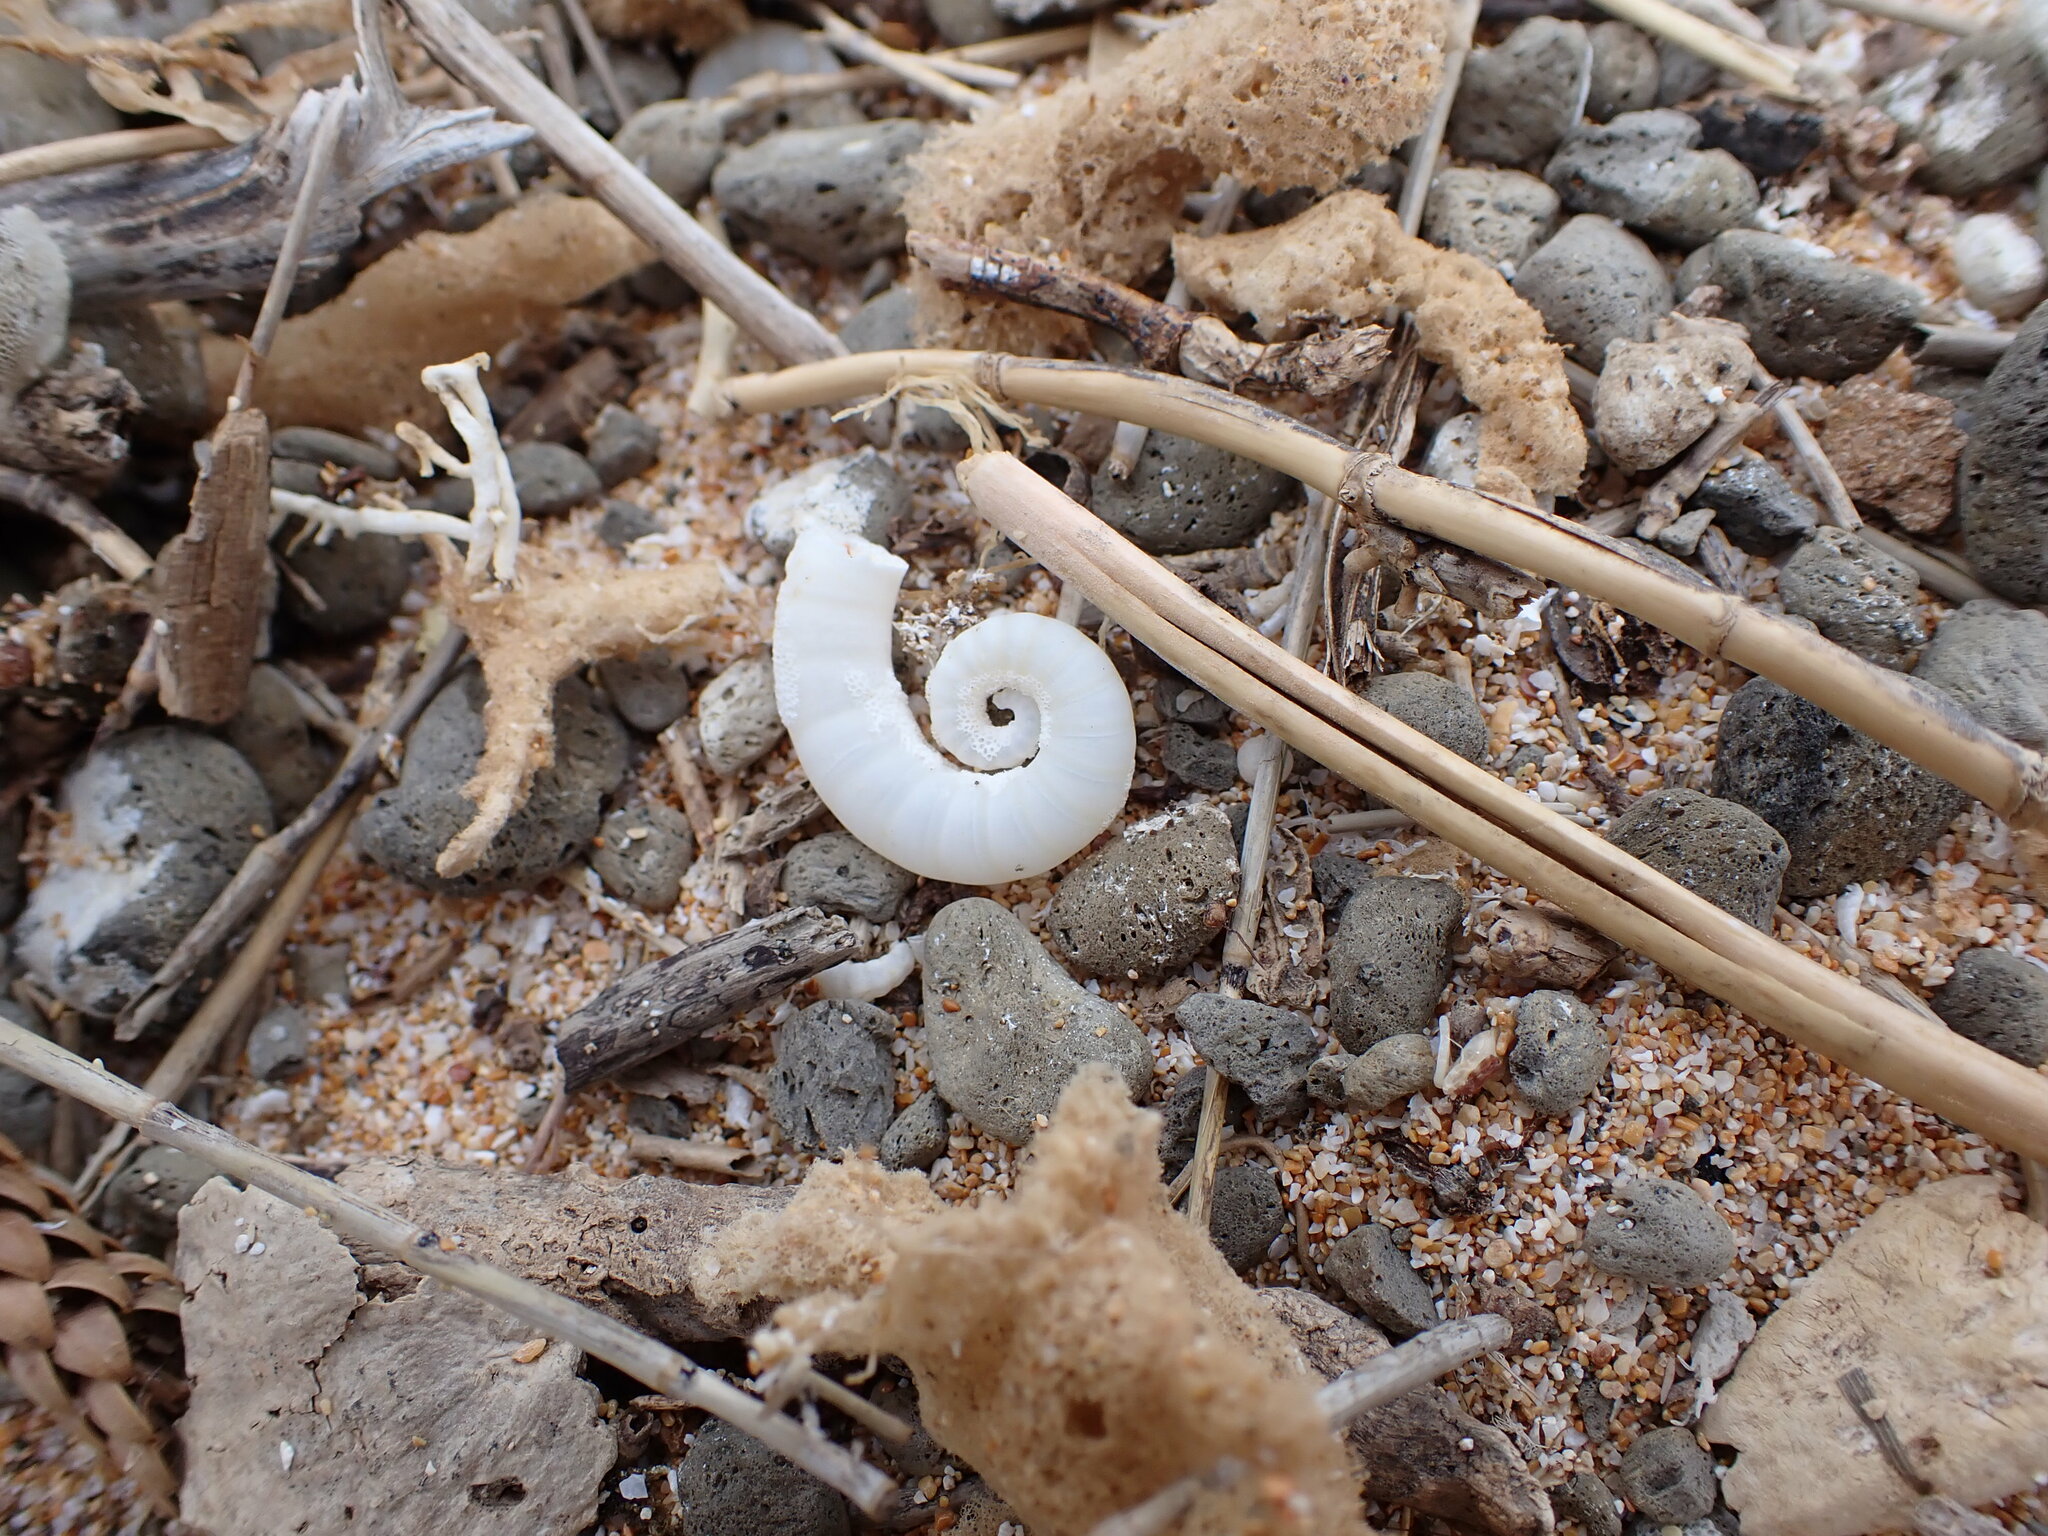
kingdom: Animalia
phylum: Mollusca
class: Cephalopoda
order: Spirulida
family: Spirulidae
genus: Spirula
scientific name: Spirula spirula
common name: Ram's horn squid
